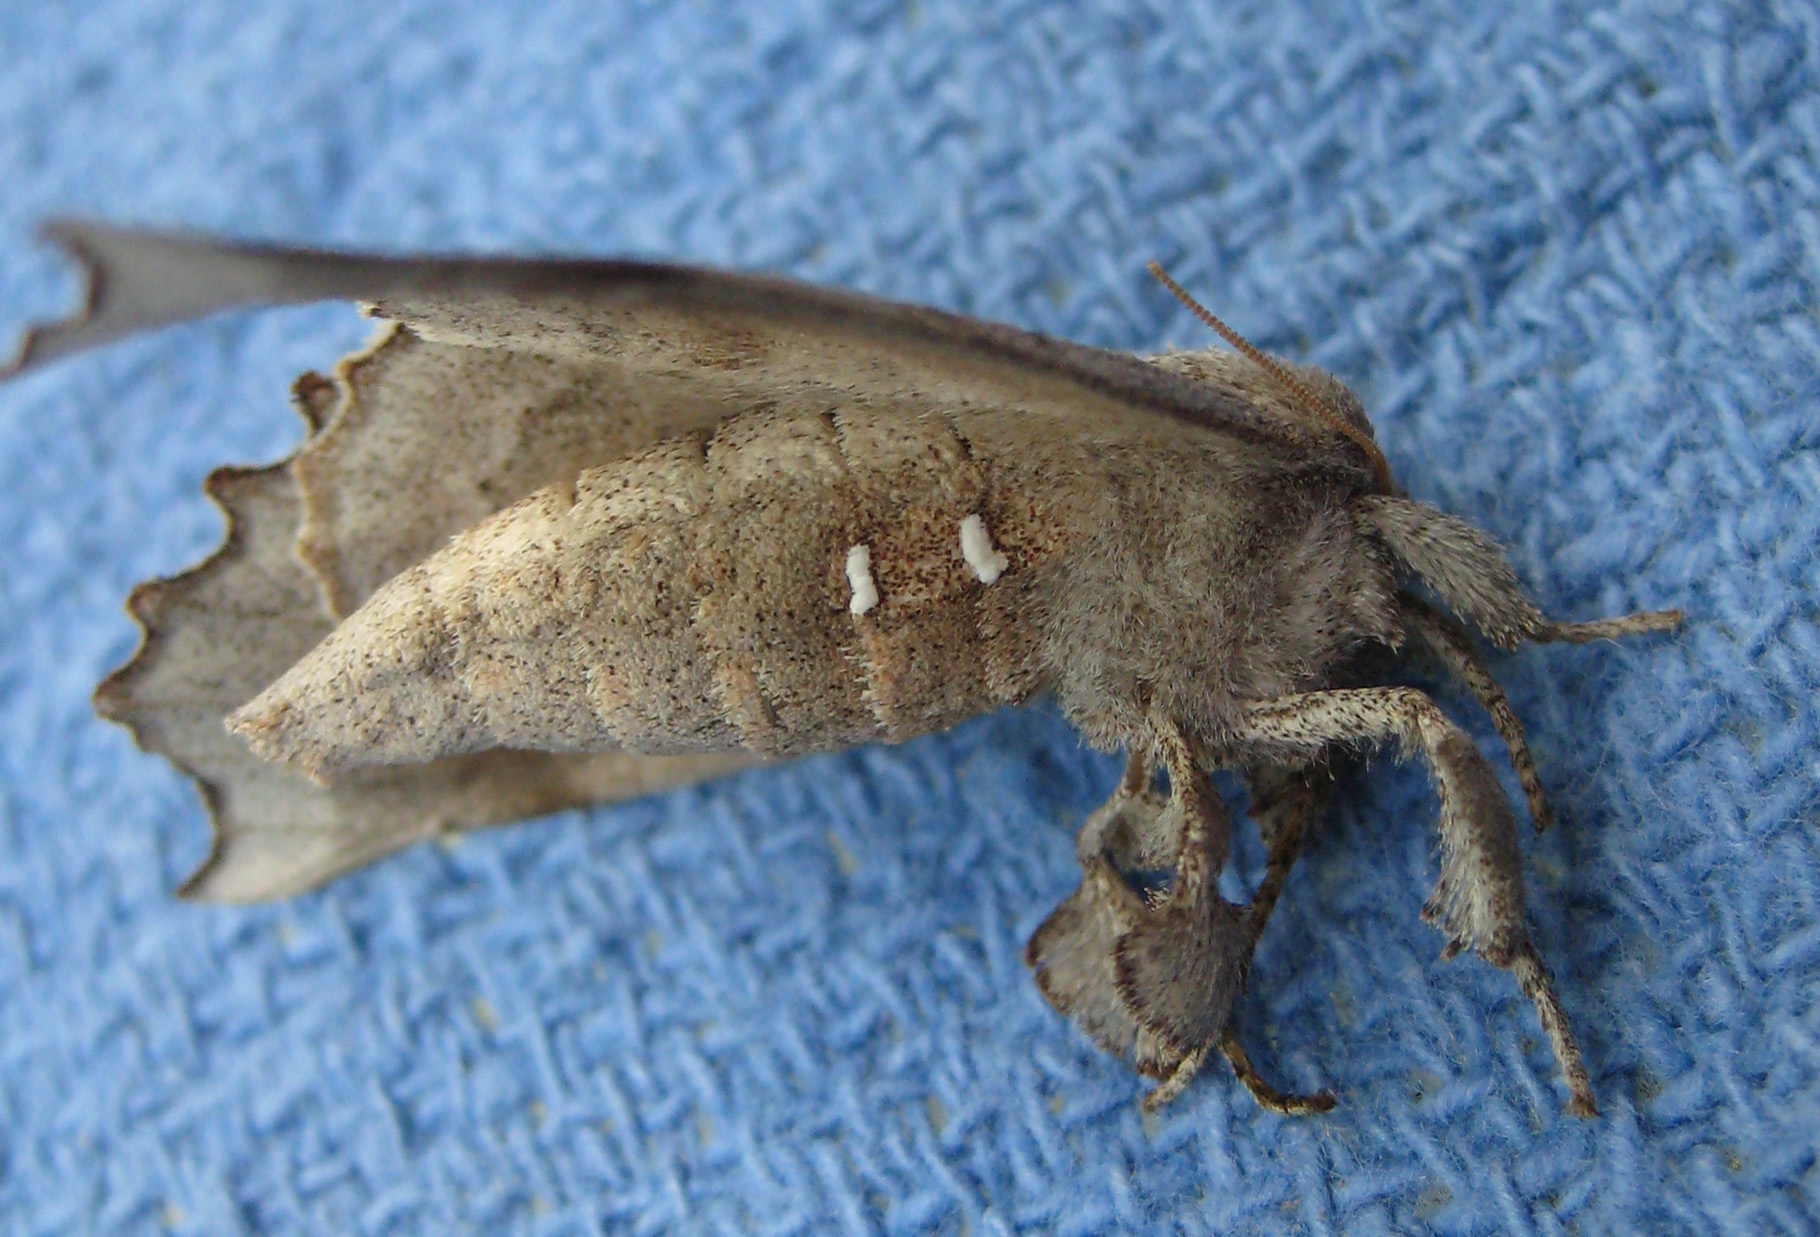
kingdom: Animalia
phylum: Arthropoda
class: Insecta
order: Lepidoptera
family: Apatelodidae
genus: Olceclostera
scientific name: Olceclostera angelica
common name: Angel moth
